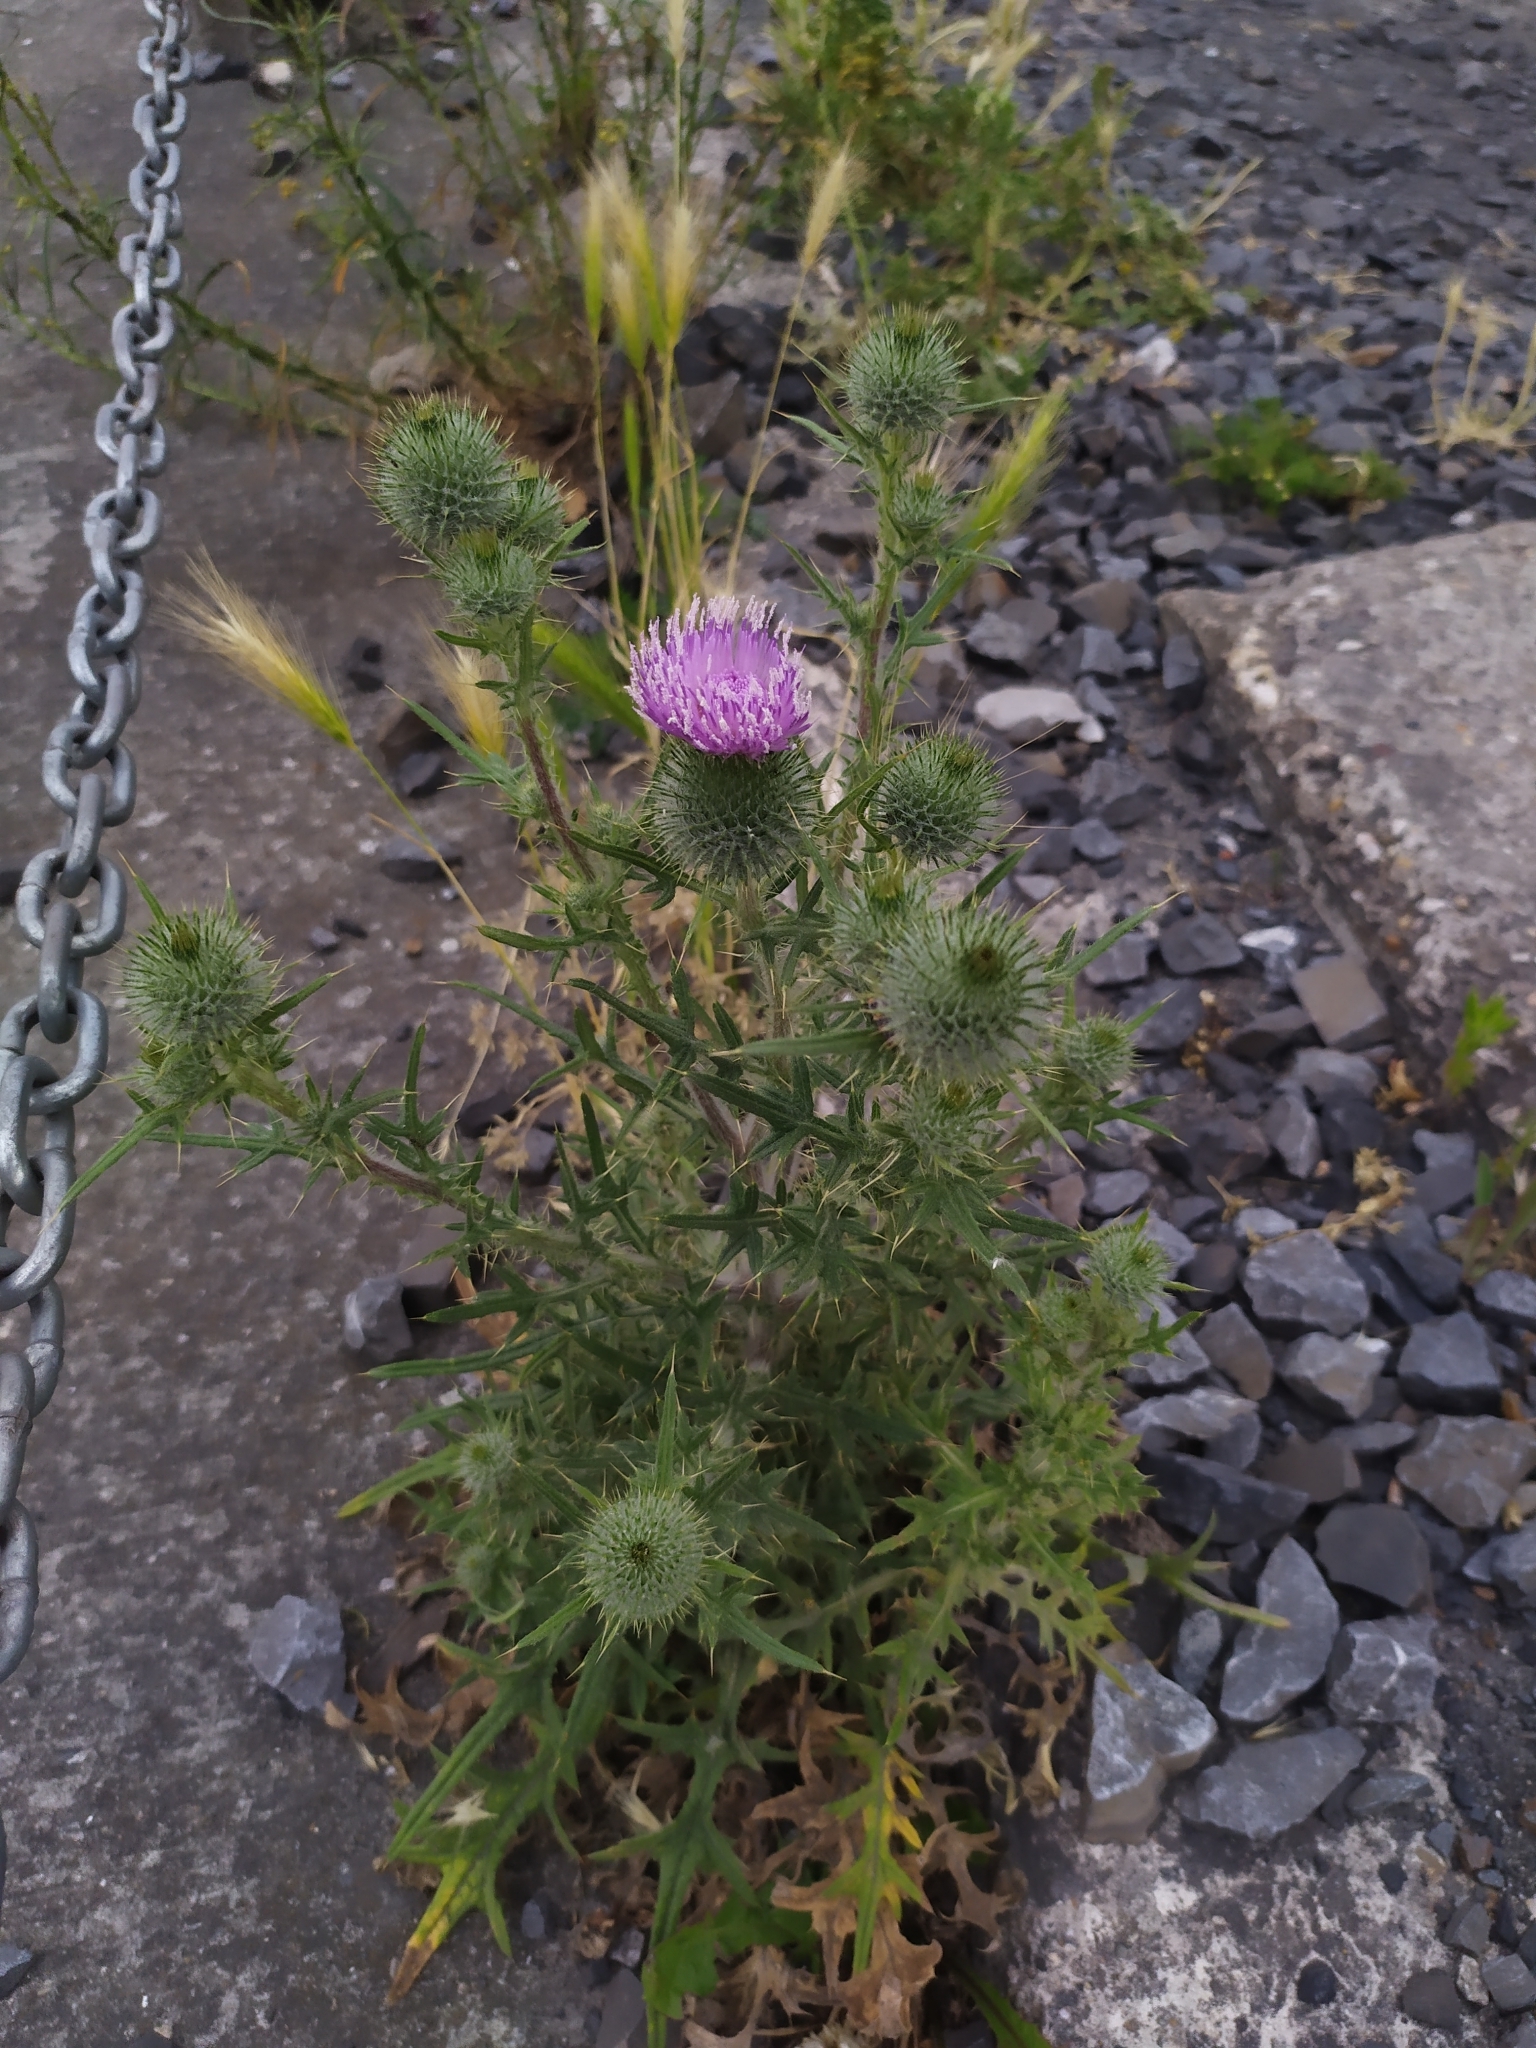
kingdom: Plantae
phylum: Tracheophyta
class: Magnoliopsida
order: Asterales
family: Asteraceae
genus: Cirsium
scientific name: Cirsium vulgare
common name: Bull thistle
